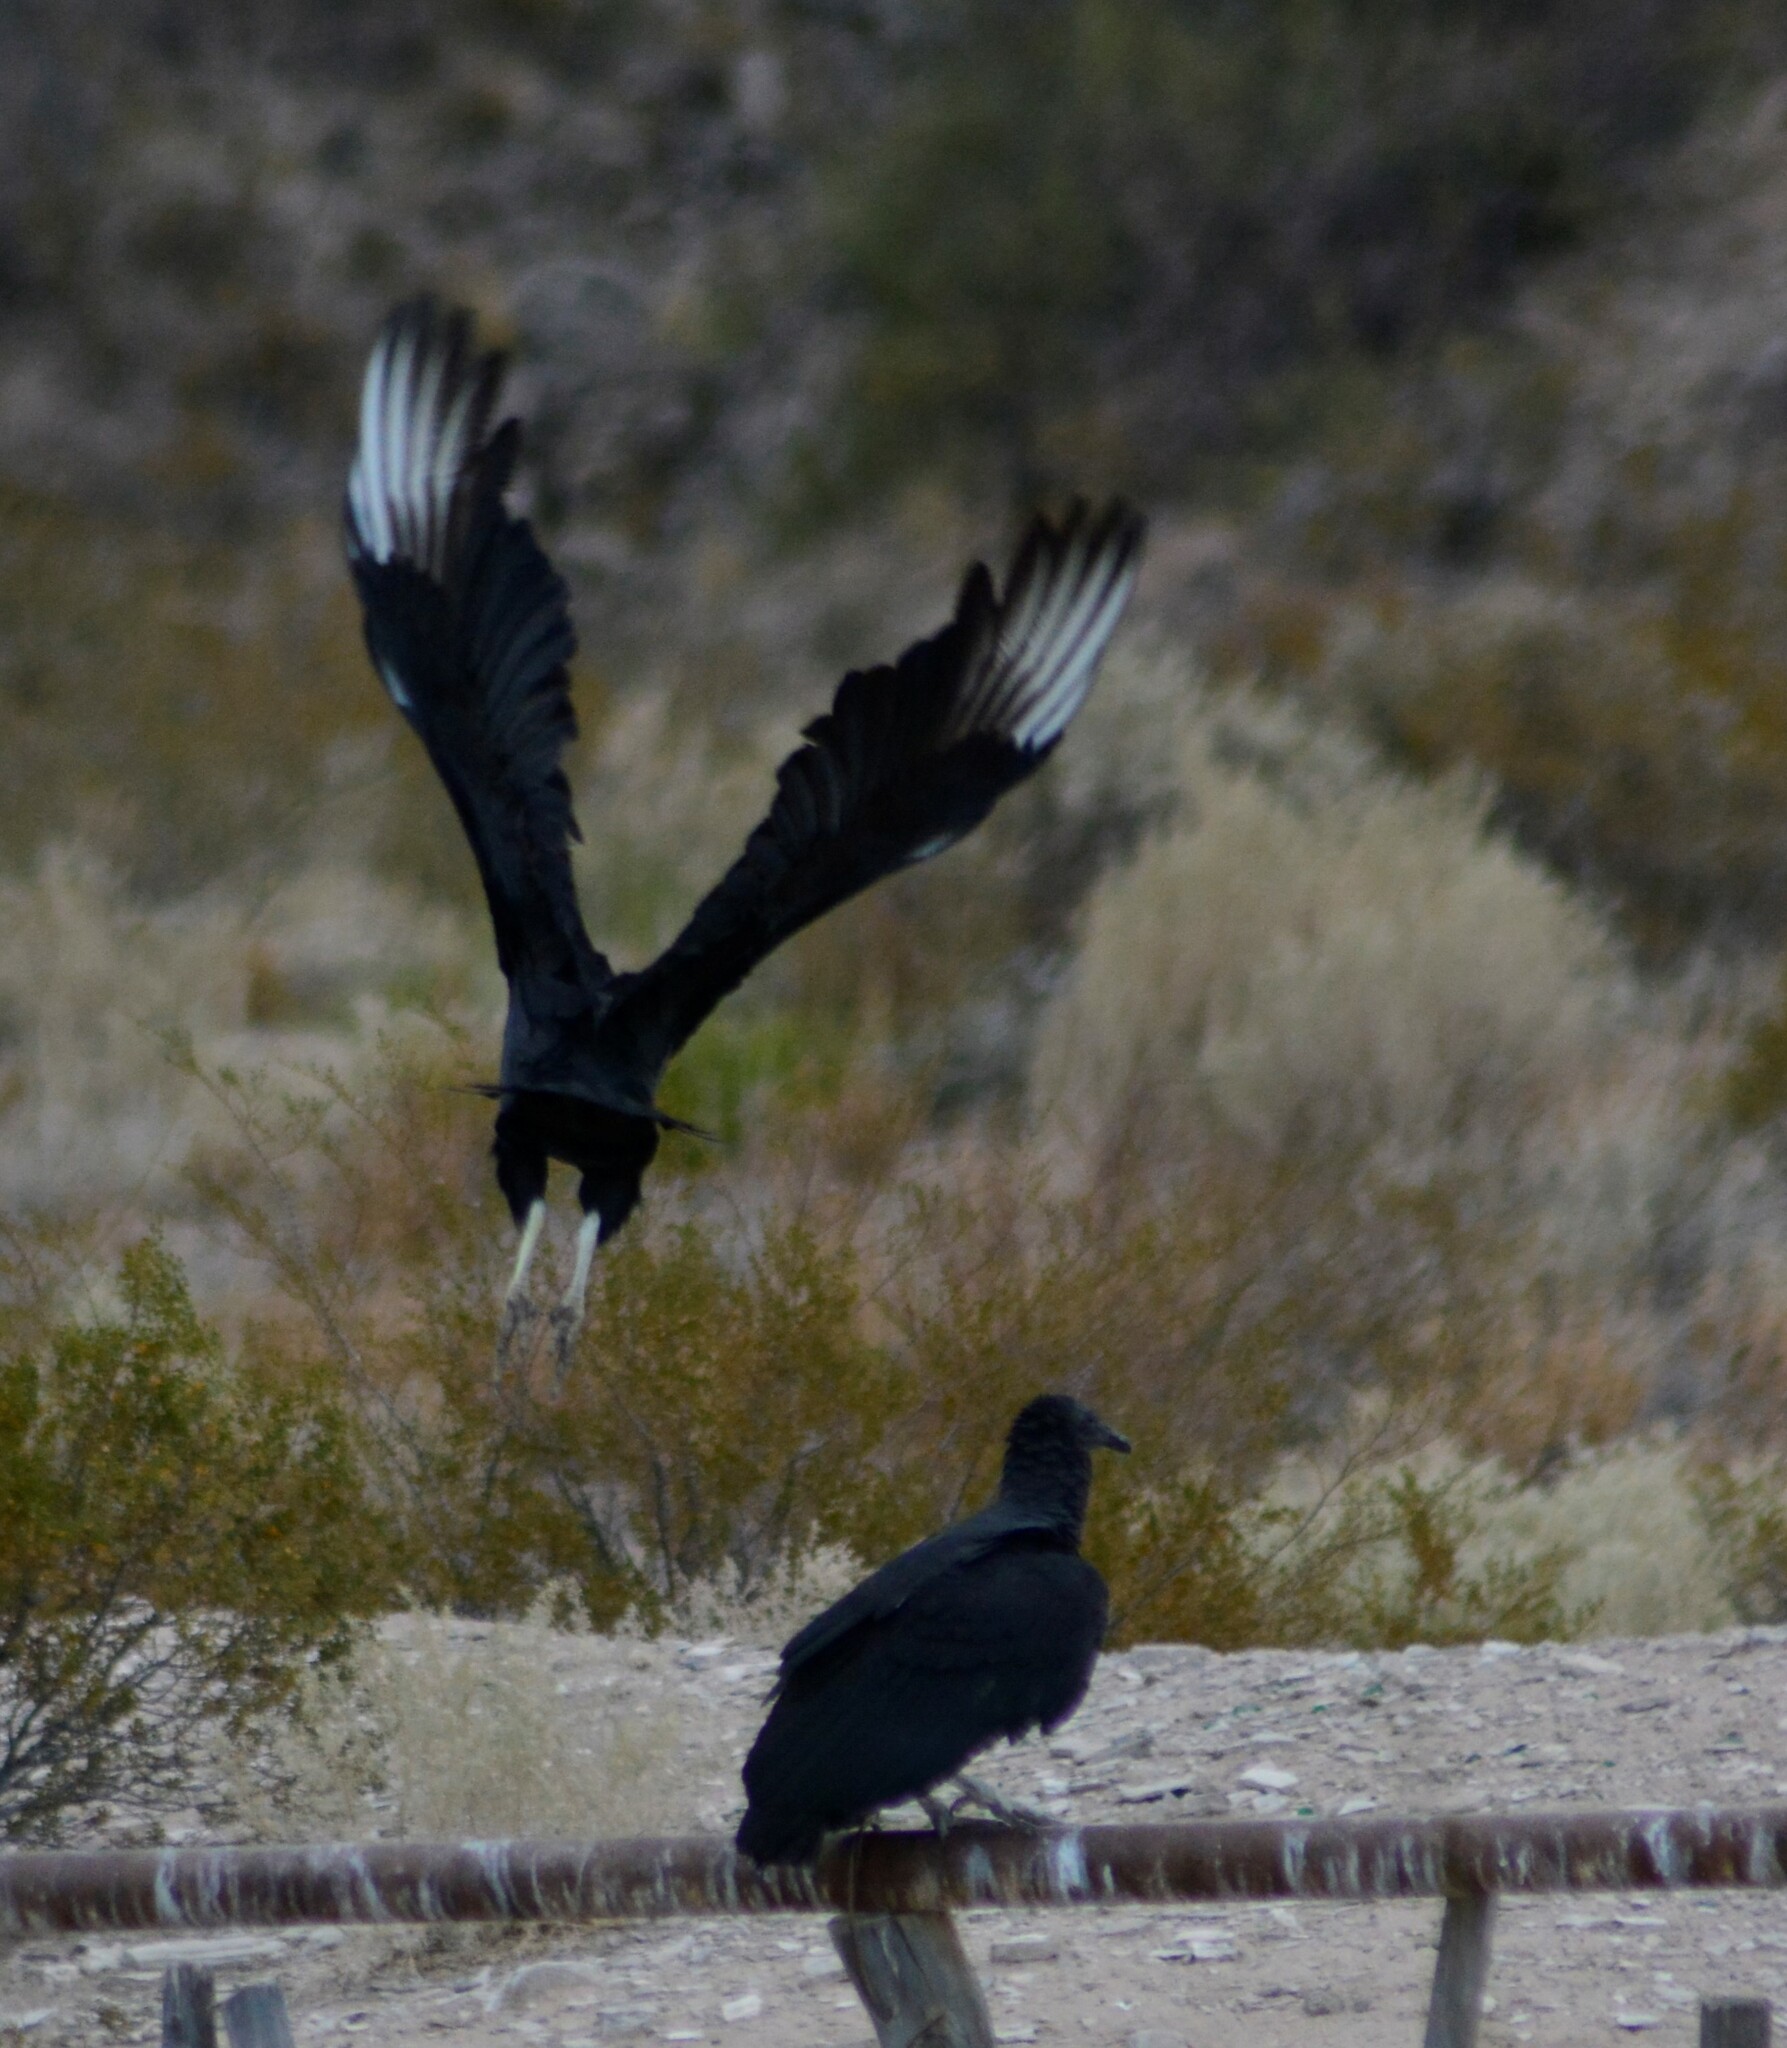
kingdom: Animalia
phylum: Chordata
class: Aves
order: Accipitriformes
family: Cathartidae
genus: Coragyps
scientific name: Coragyps atratus
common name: Black vulture
